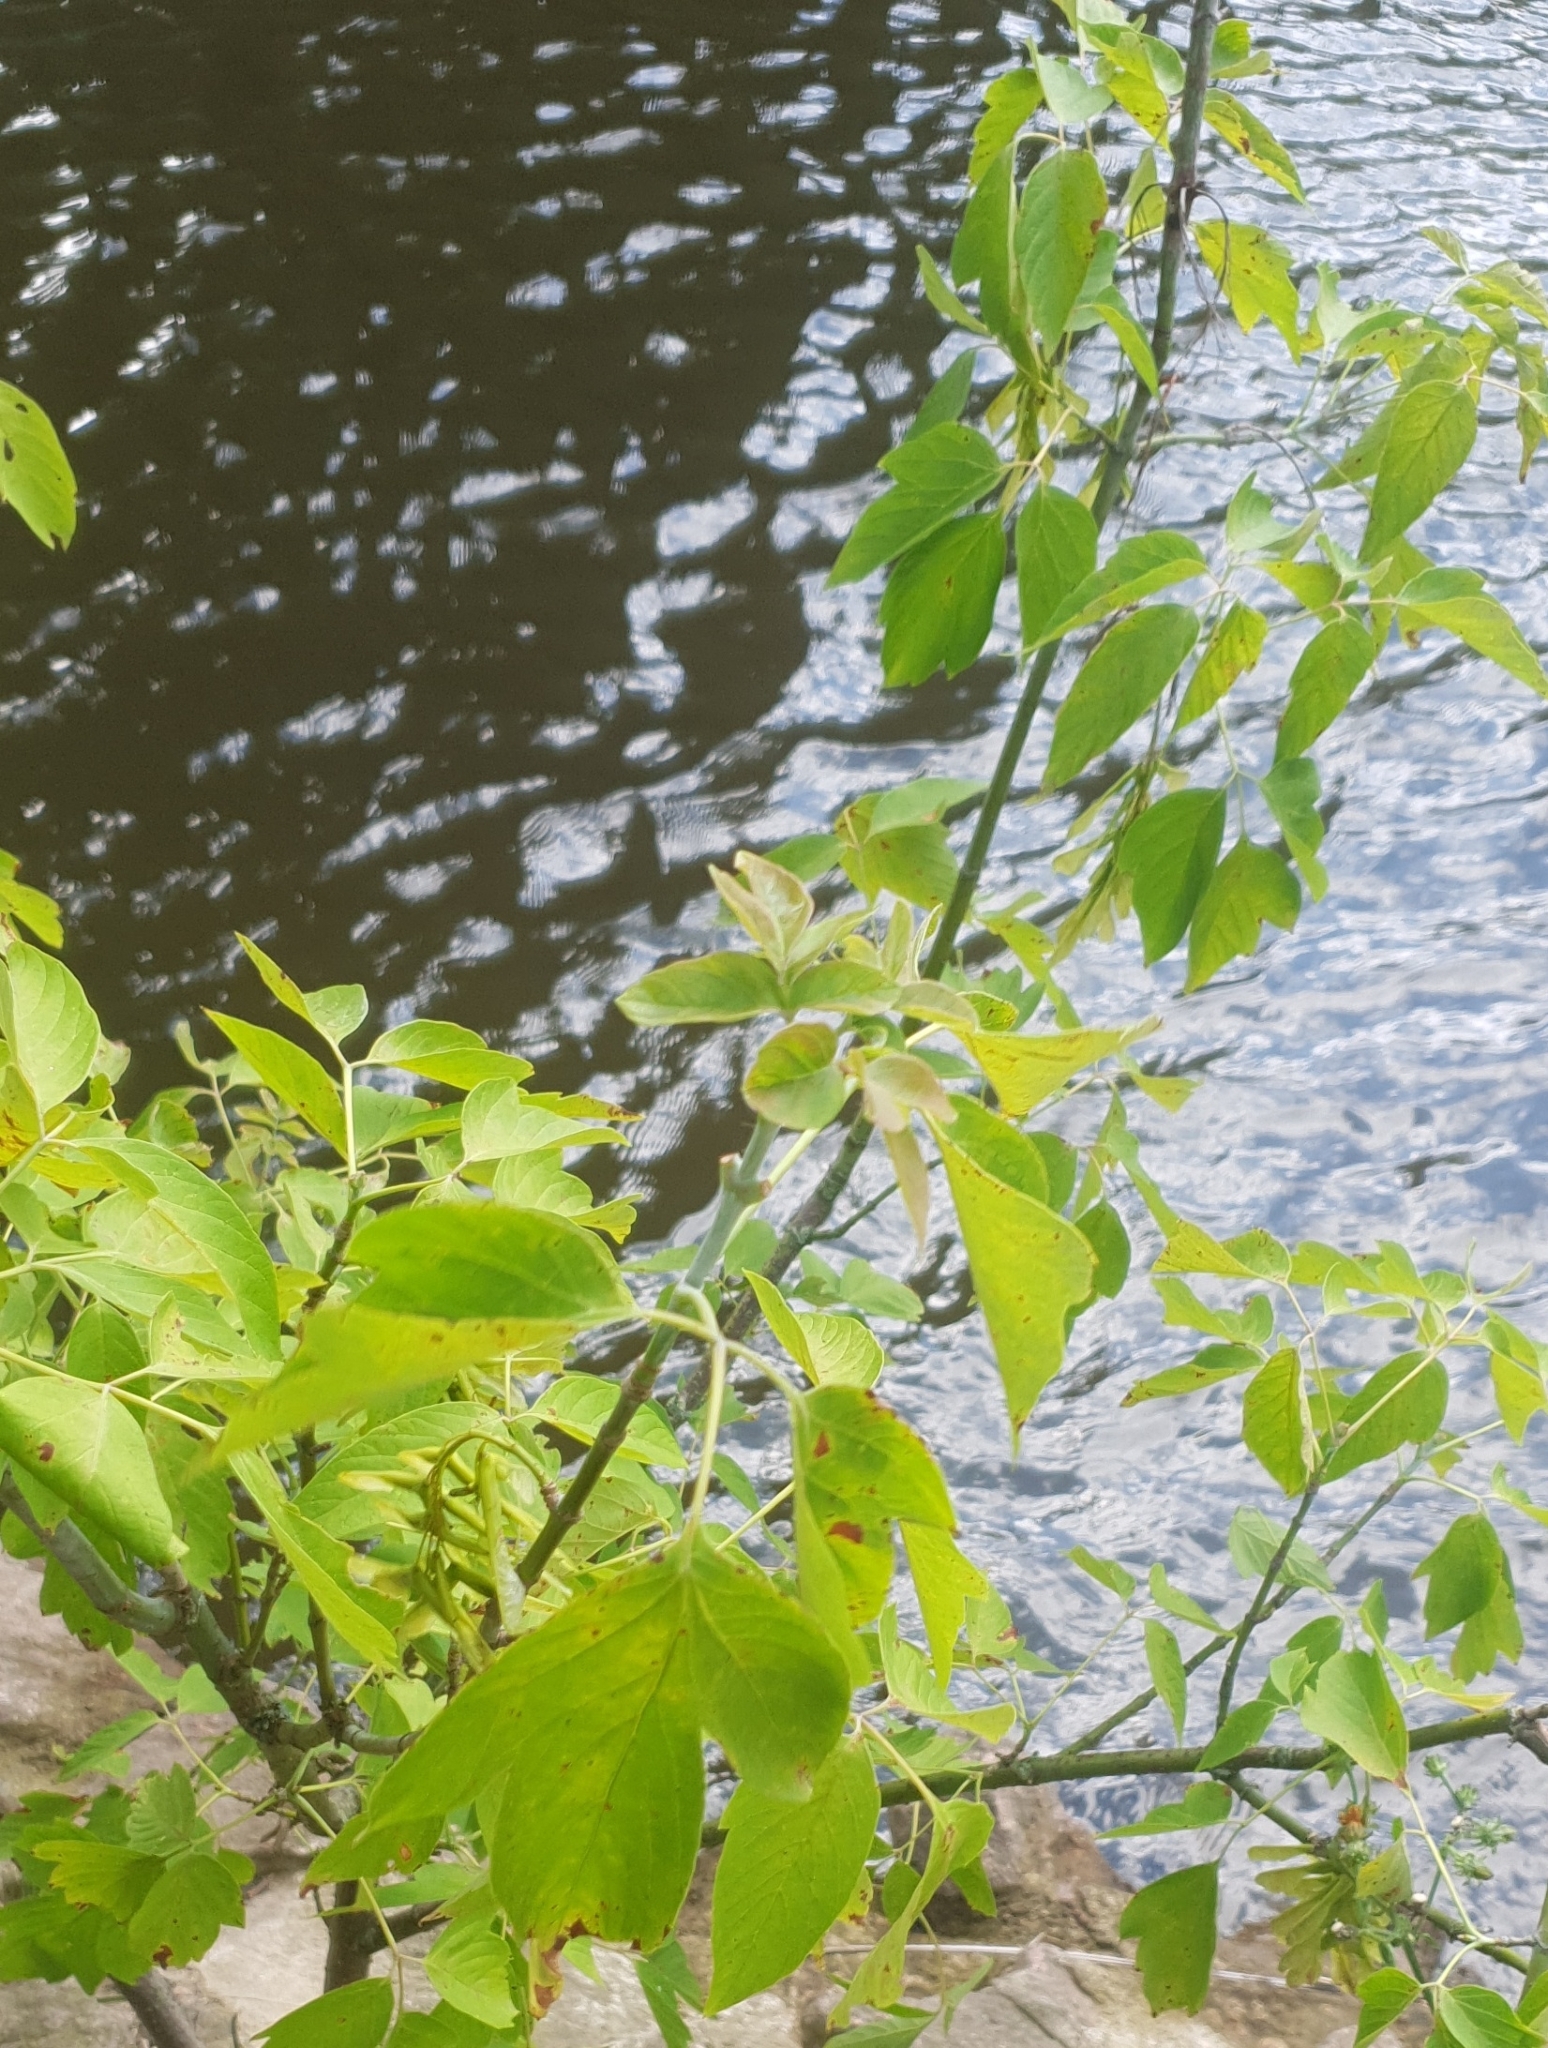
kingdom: Plantae
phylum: Tracheophyta
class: Magnoliopsida
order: Sapindales
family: Sapindaceae
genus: Acer
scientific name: Acer negundo
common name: Ashleaf maple
